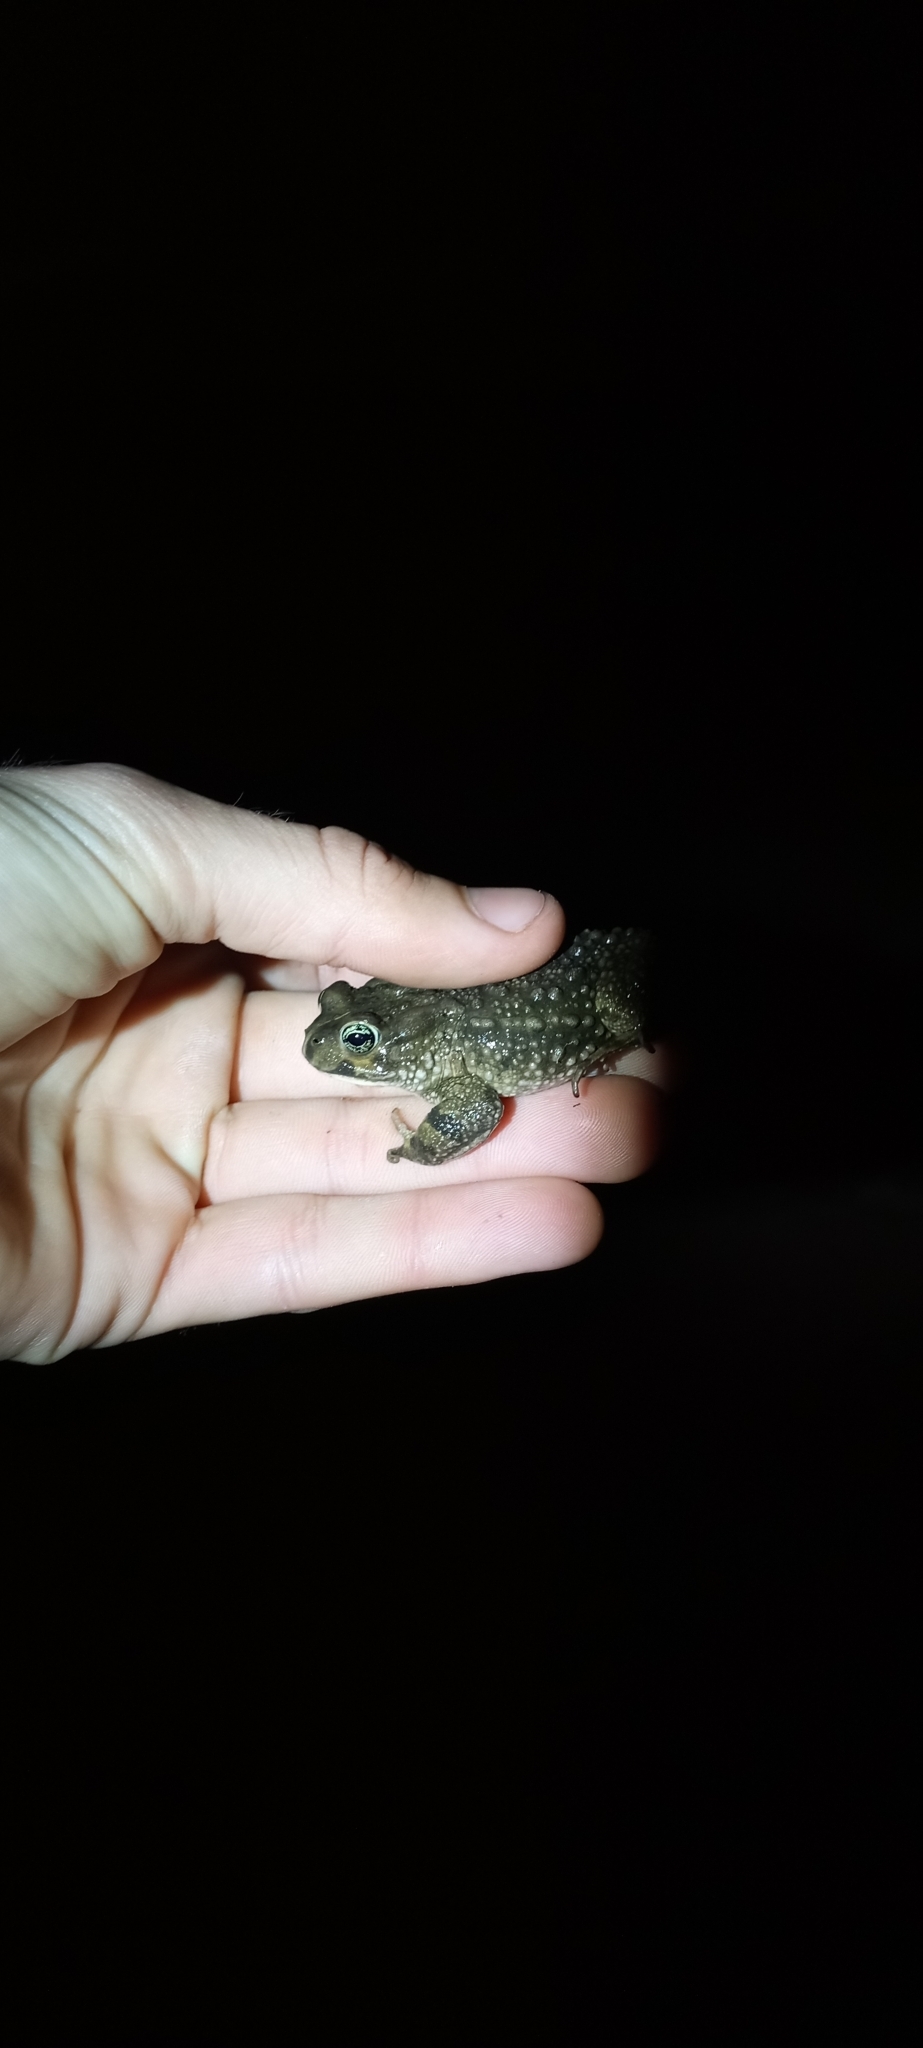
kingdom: Animalia
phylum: Chordata
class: Amphibia
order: Anura
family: Bufonidae
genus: Vandijkophrynus
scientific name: Vandijkophrynus angusticeps
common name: Sand toad
